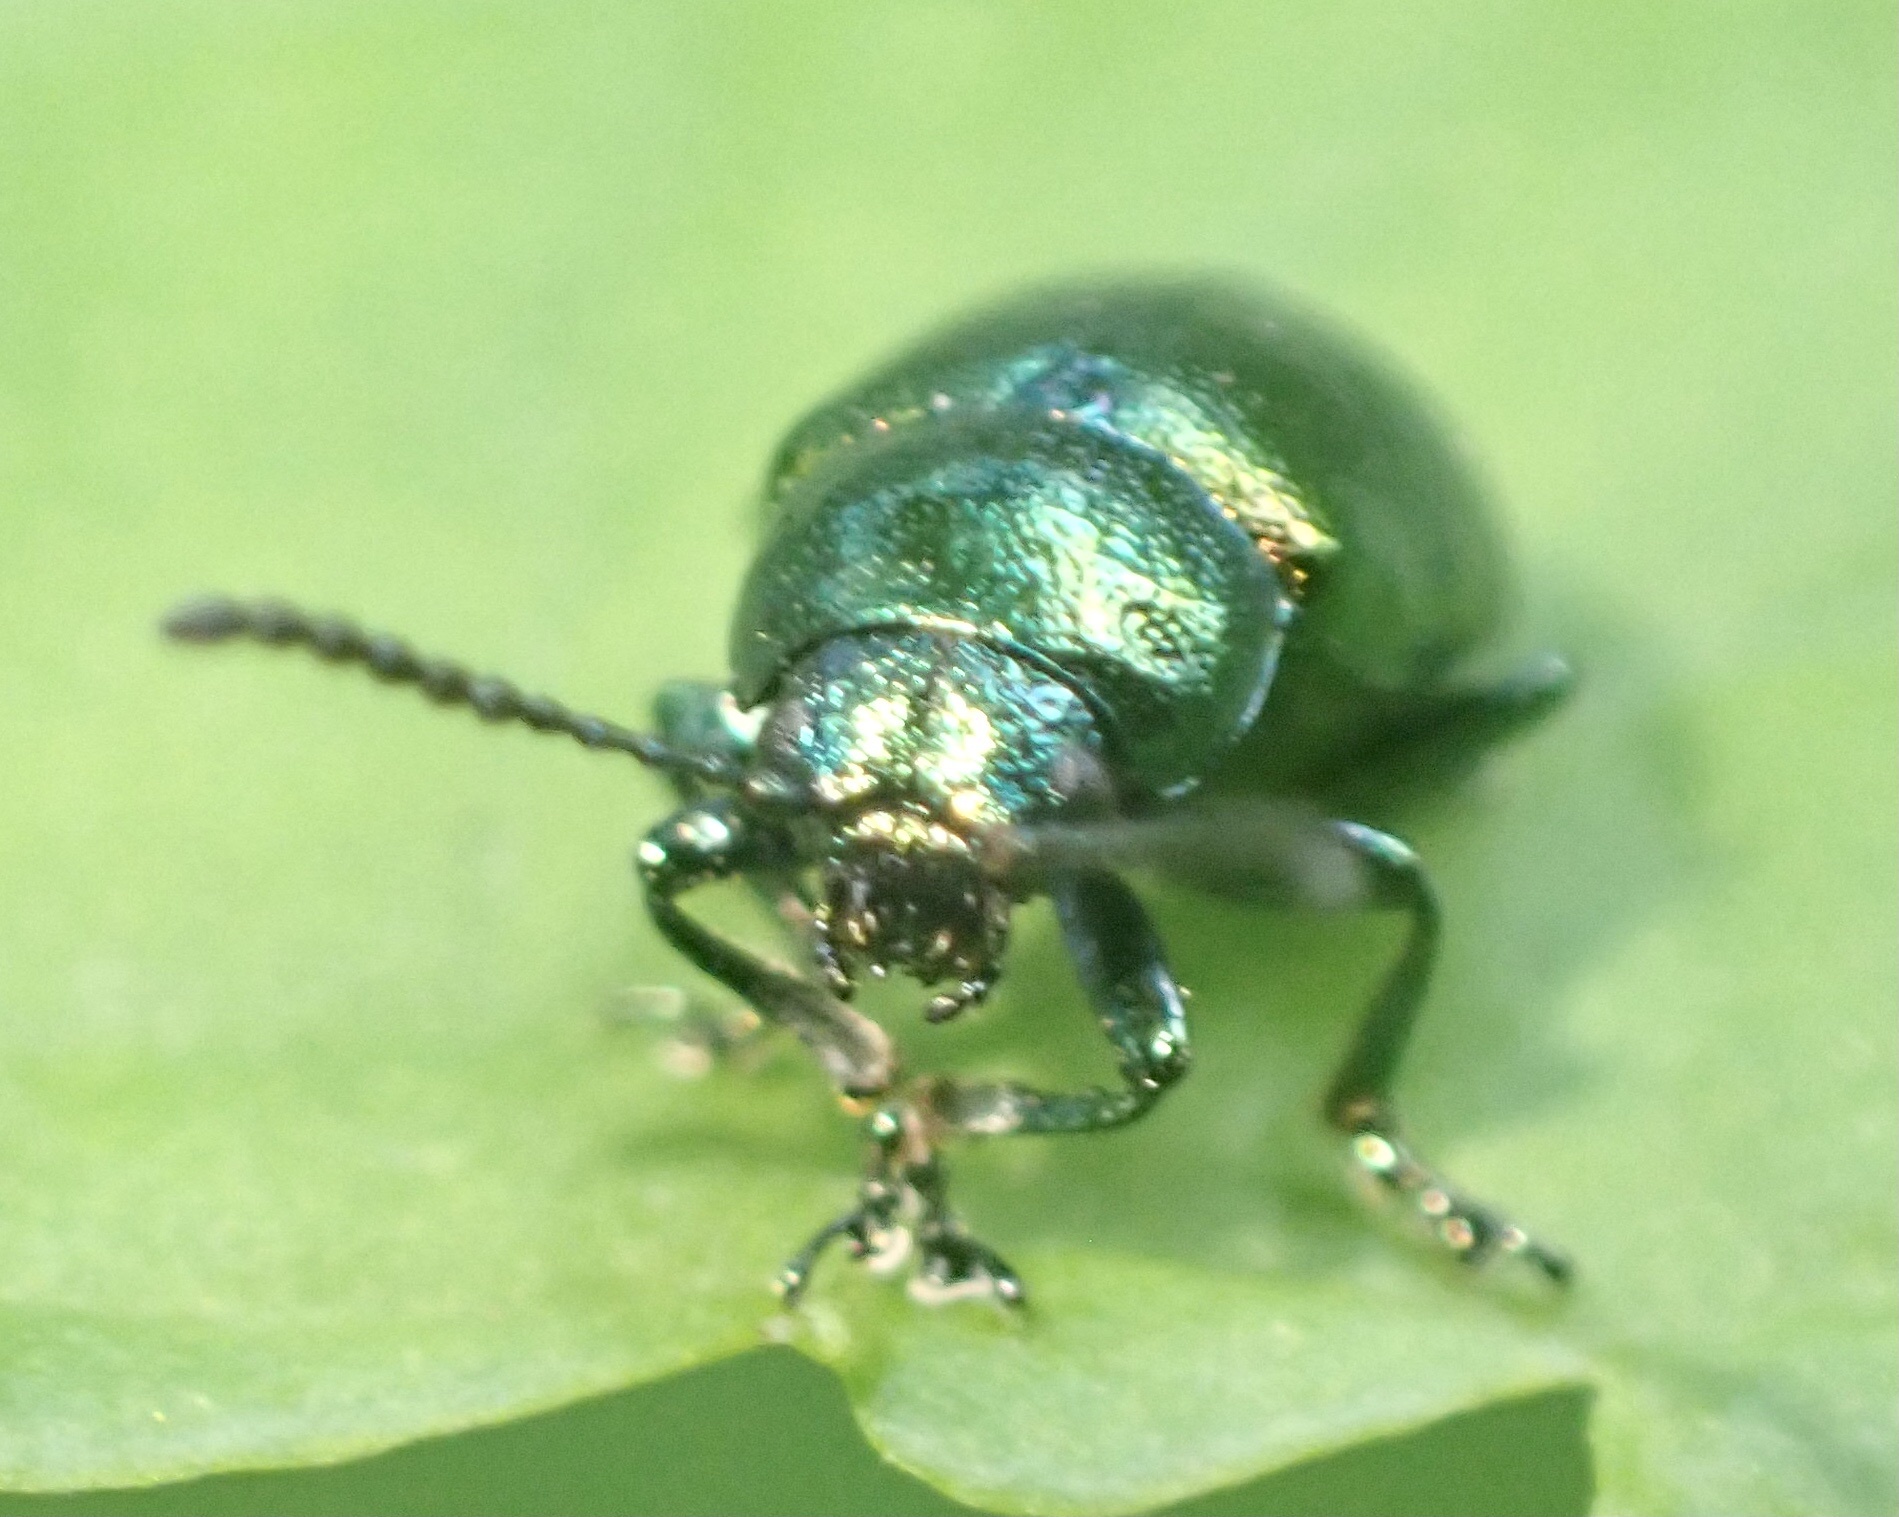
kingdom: Animalia
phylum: Arthropoda
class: Insecta
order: Coleoptera
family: Chrysomelidae
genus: Gastrophysa
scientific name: Gastrophysa viridula
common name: Green dock beetle
